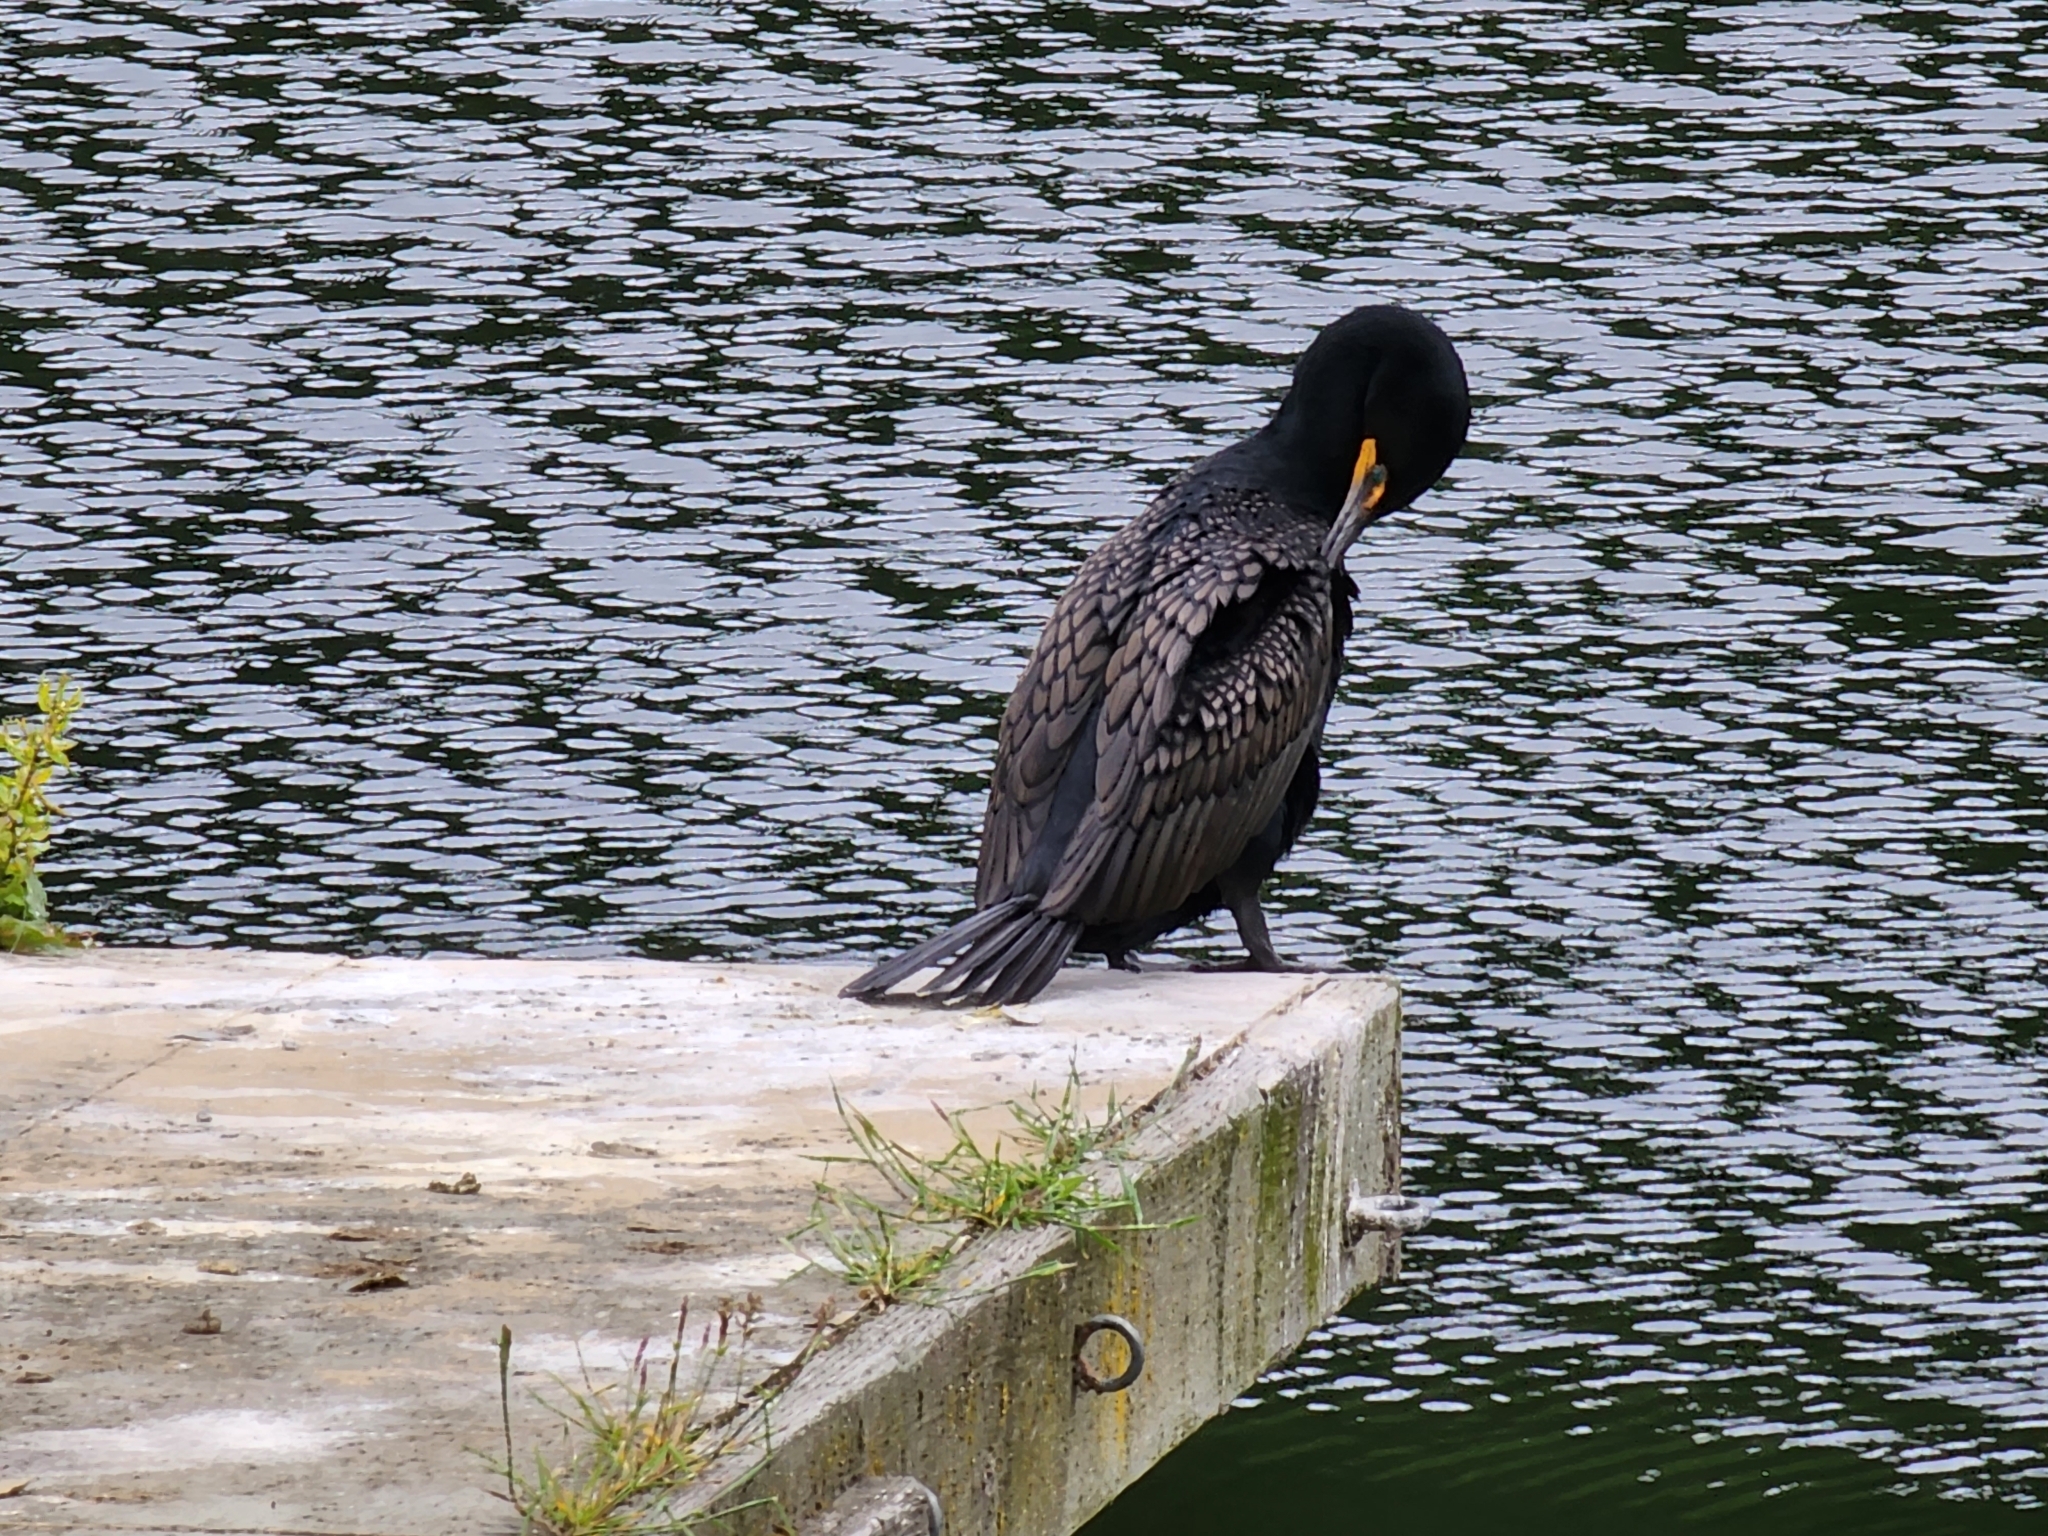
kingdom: Animalia
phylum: Chordata
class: Aves
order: Suliformes
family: Phalacrocoracidae
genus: Phalacrocorax
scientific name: Phalacrocorax auritus
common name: Double-crested cormorant
